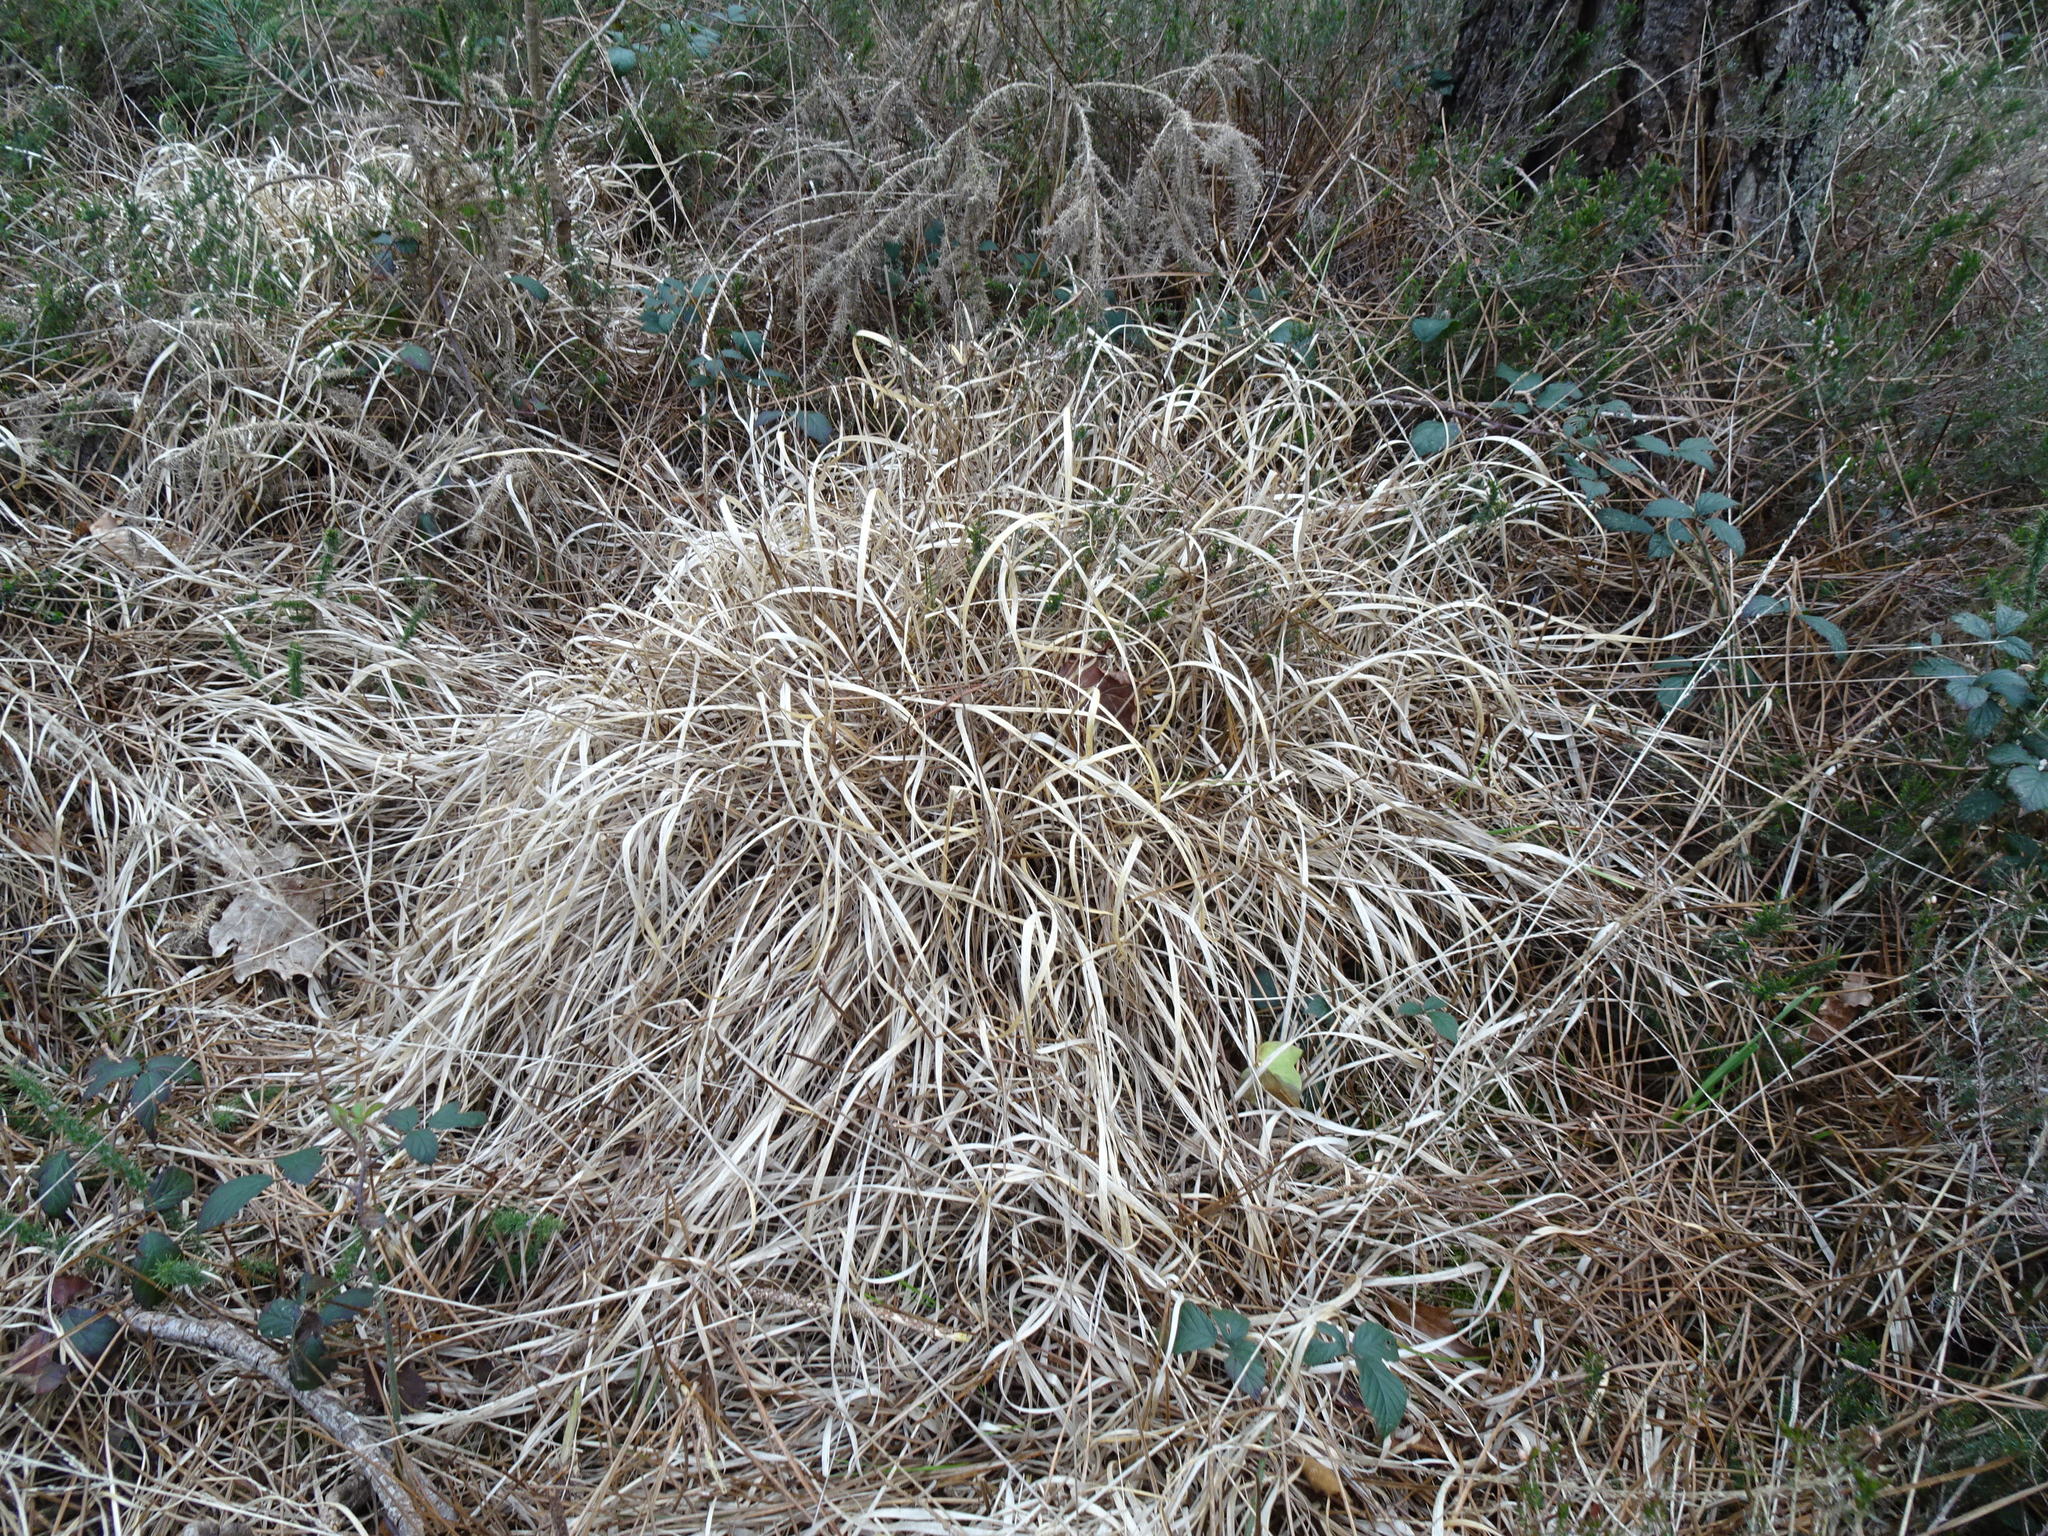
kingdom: Plantae
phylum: Tracheophyta
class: Liliopsida
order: Poales
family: Poaceae
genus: Molinia
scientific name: Molinia caerulea
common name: Purple moor-grass
